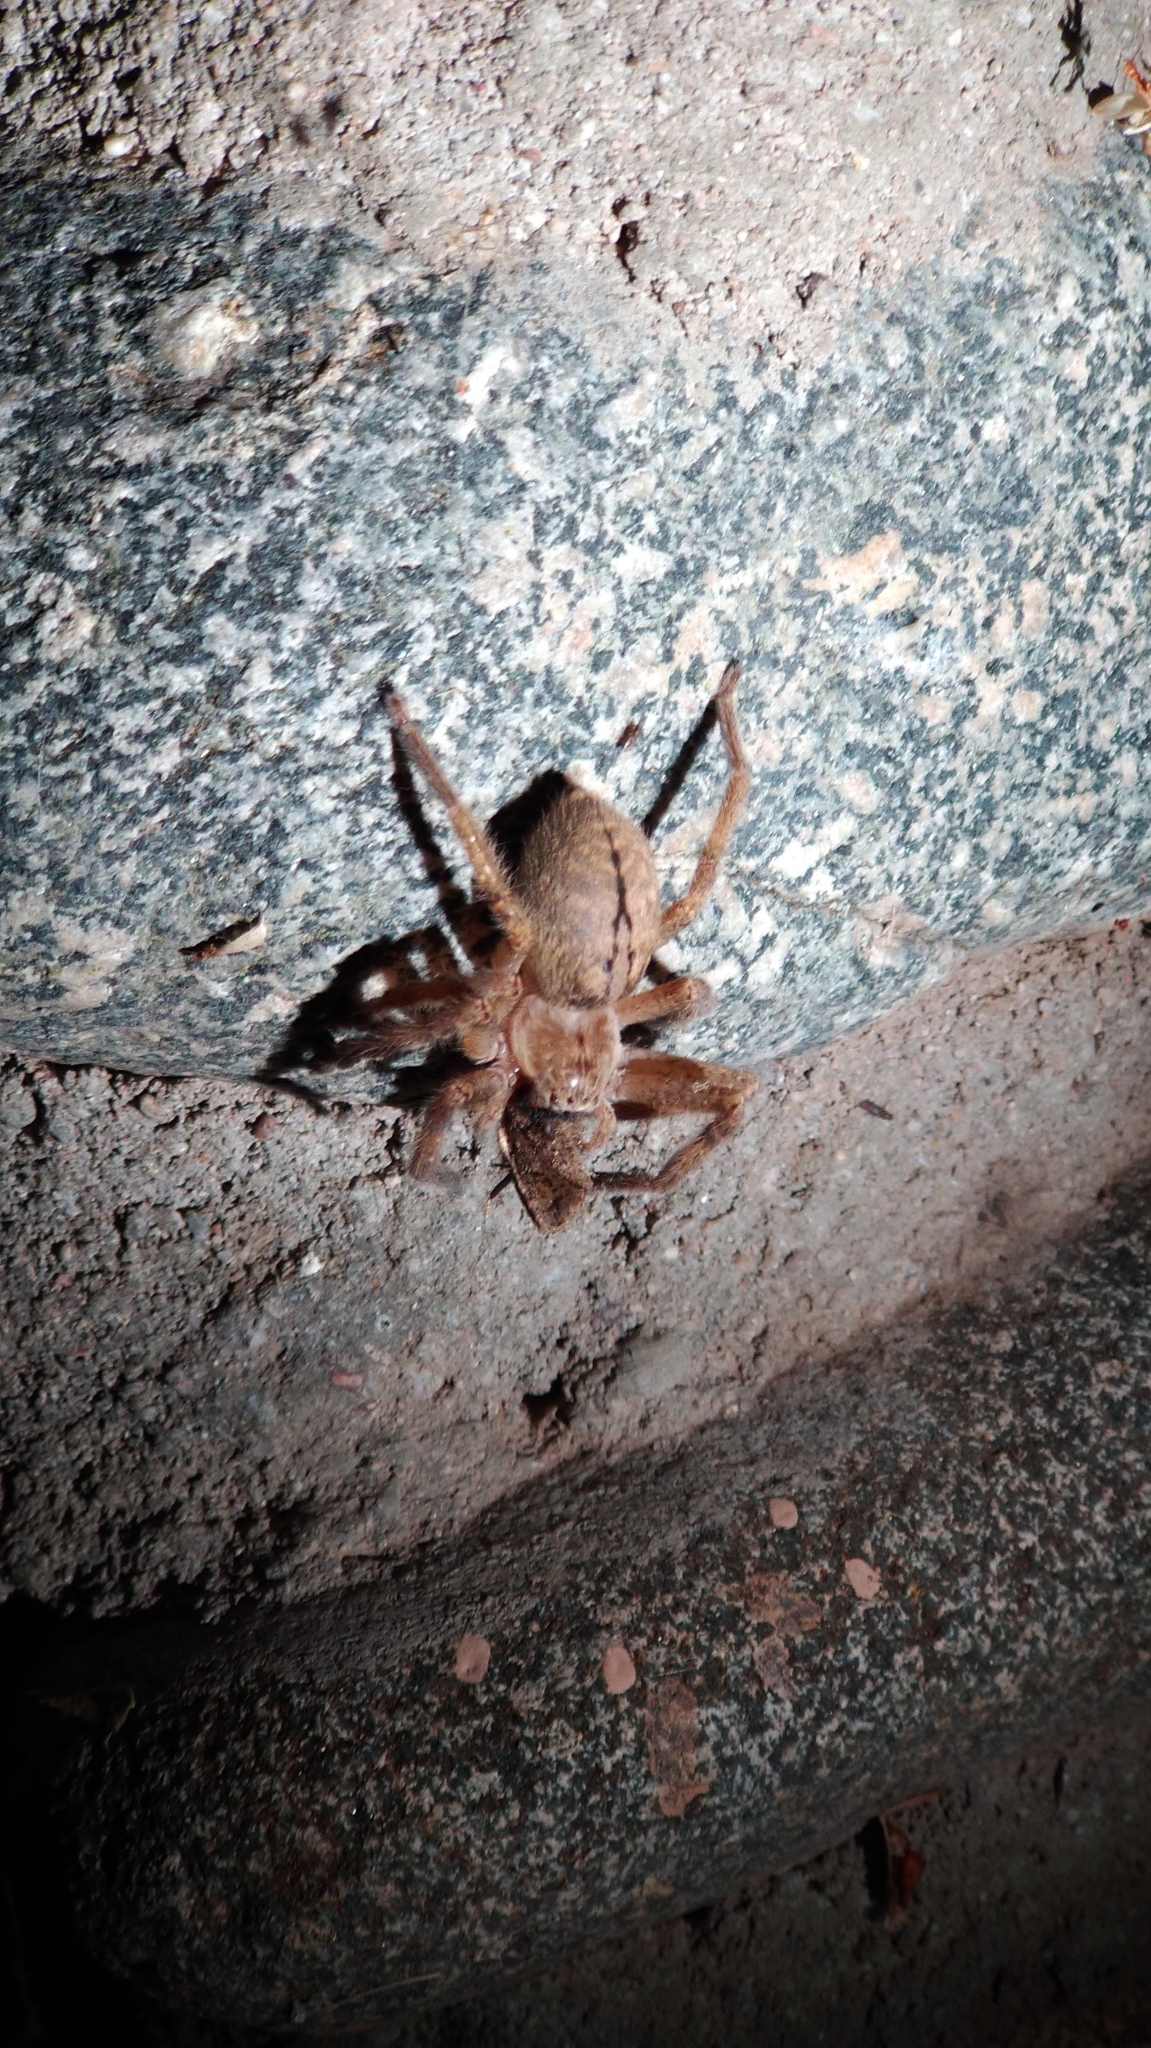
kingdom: Animalia
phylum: Arthropoda
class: Arachnida
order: Araneae
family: Sparassidae
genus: Olios
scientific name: Olios giganteus
